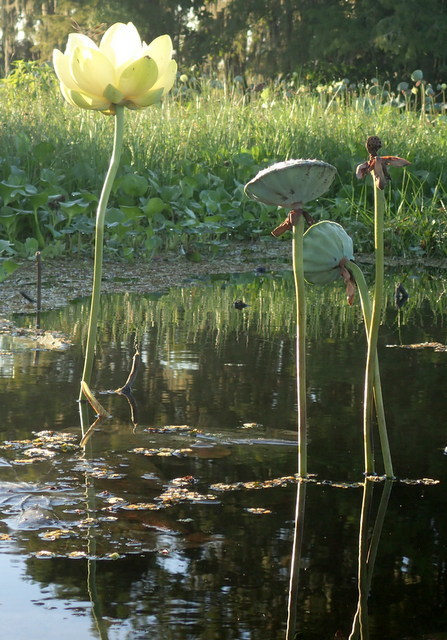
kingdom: Plantae
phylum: Tracheophyta
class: Magnoliopsida
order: Proteales
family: Nelumbonaceae
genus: Nelumbo
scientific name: Nelumbo lutea
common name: American lotus
